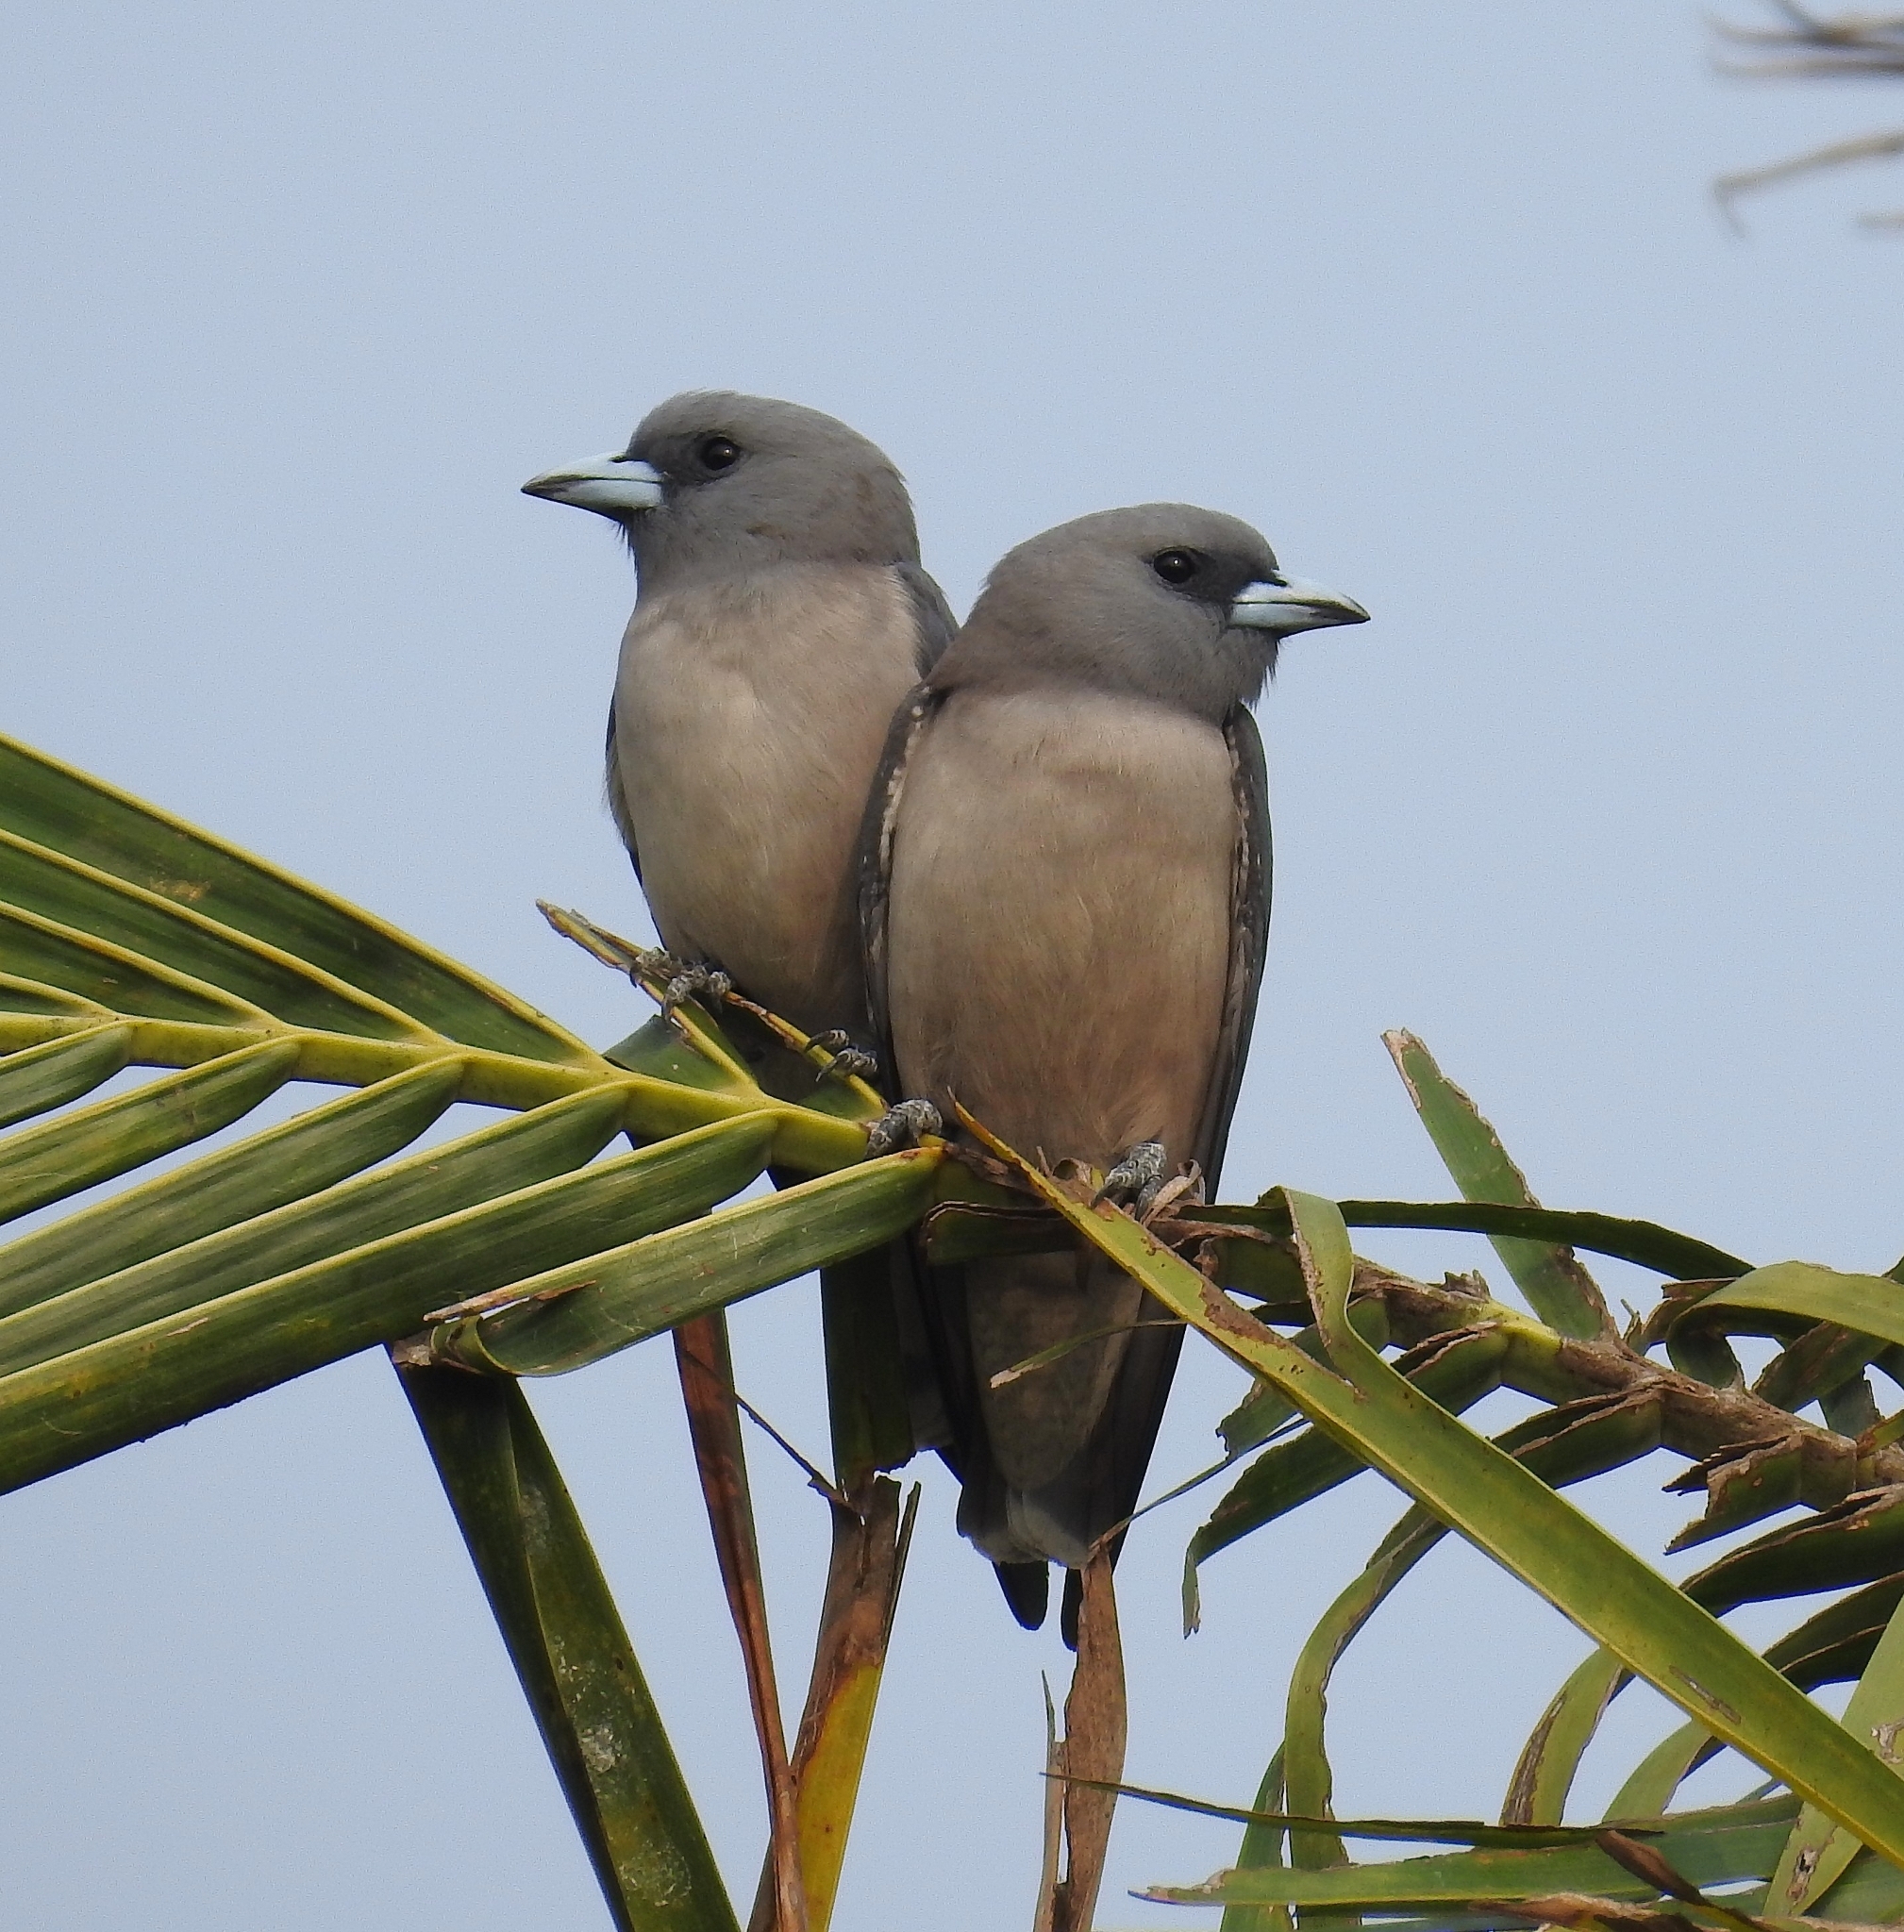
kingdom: Animalia
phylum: Chordata
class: Aves
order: Passeriformes
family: Artamidae
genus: Artamus
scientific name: Artamus fuscus
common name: Ashy woodswallow
